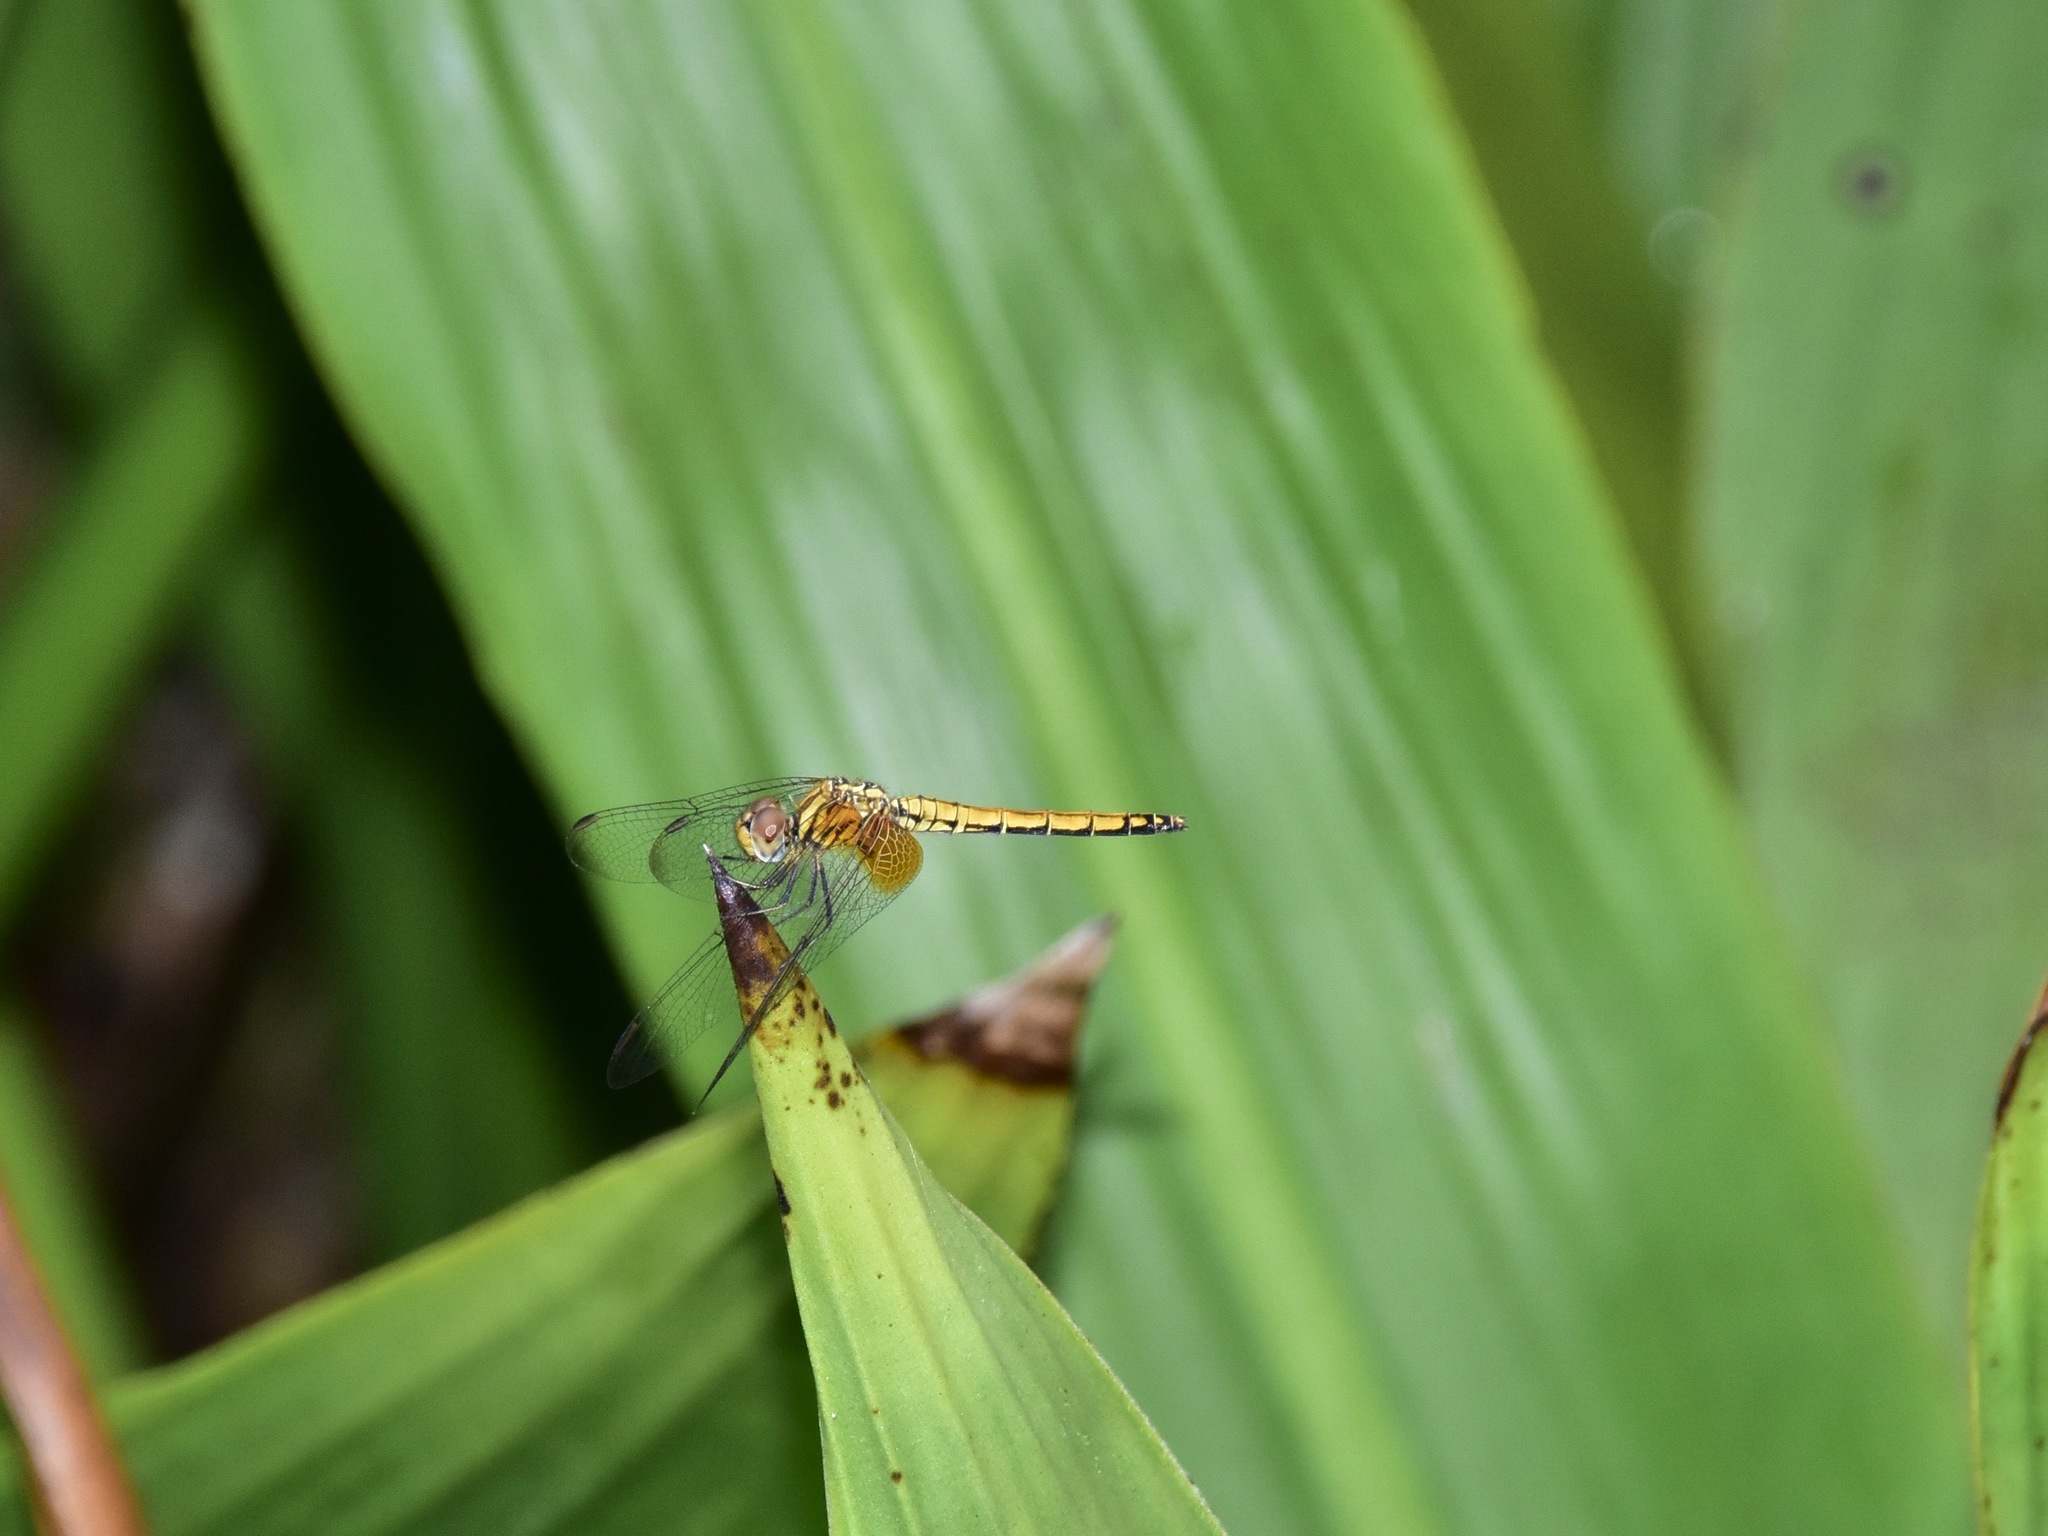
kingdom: Animalia
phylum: Arthropoda
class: Insecta
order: Odonata
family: Libellulidae
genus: Trithemis
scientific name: Trithemis aurora
